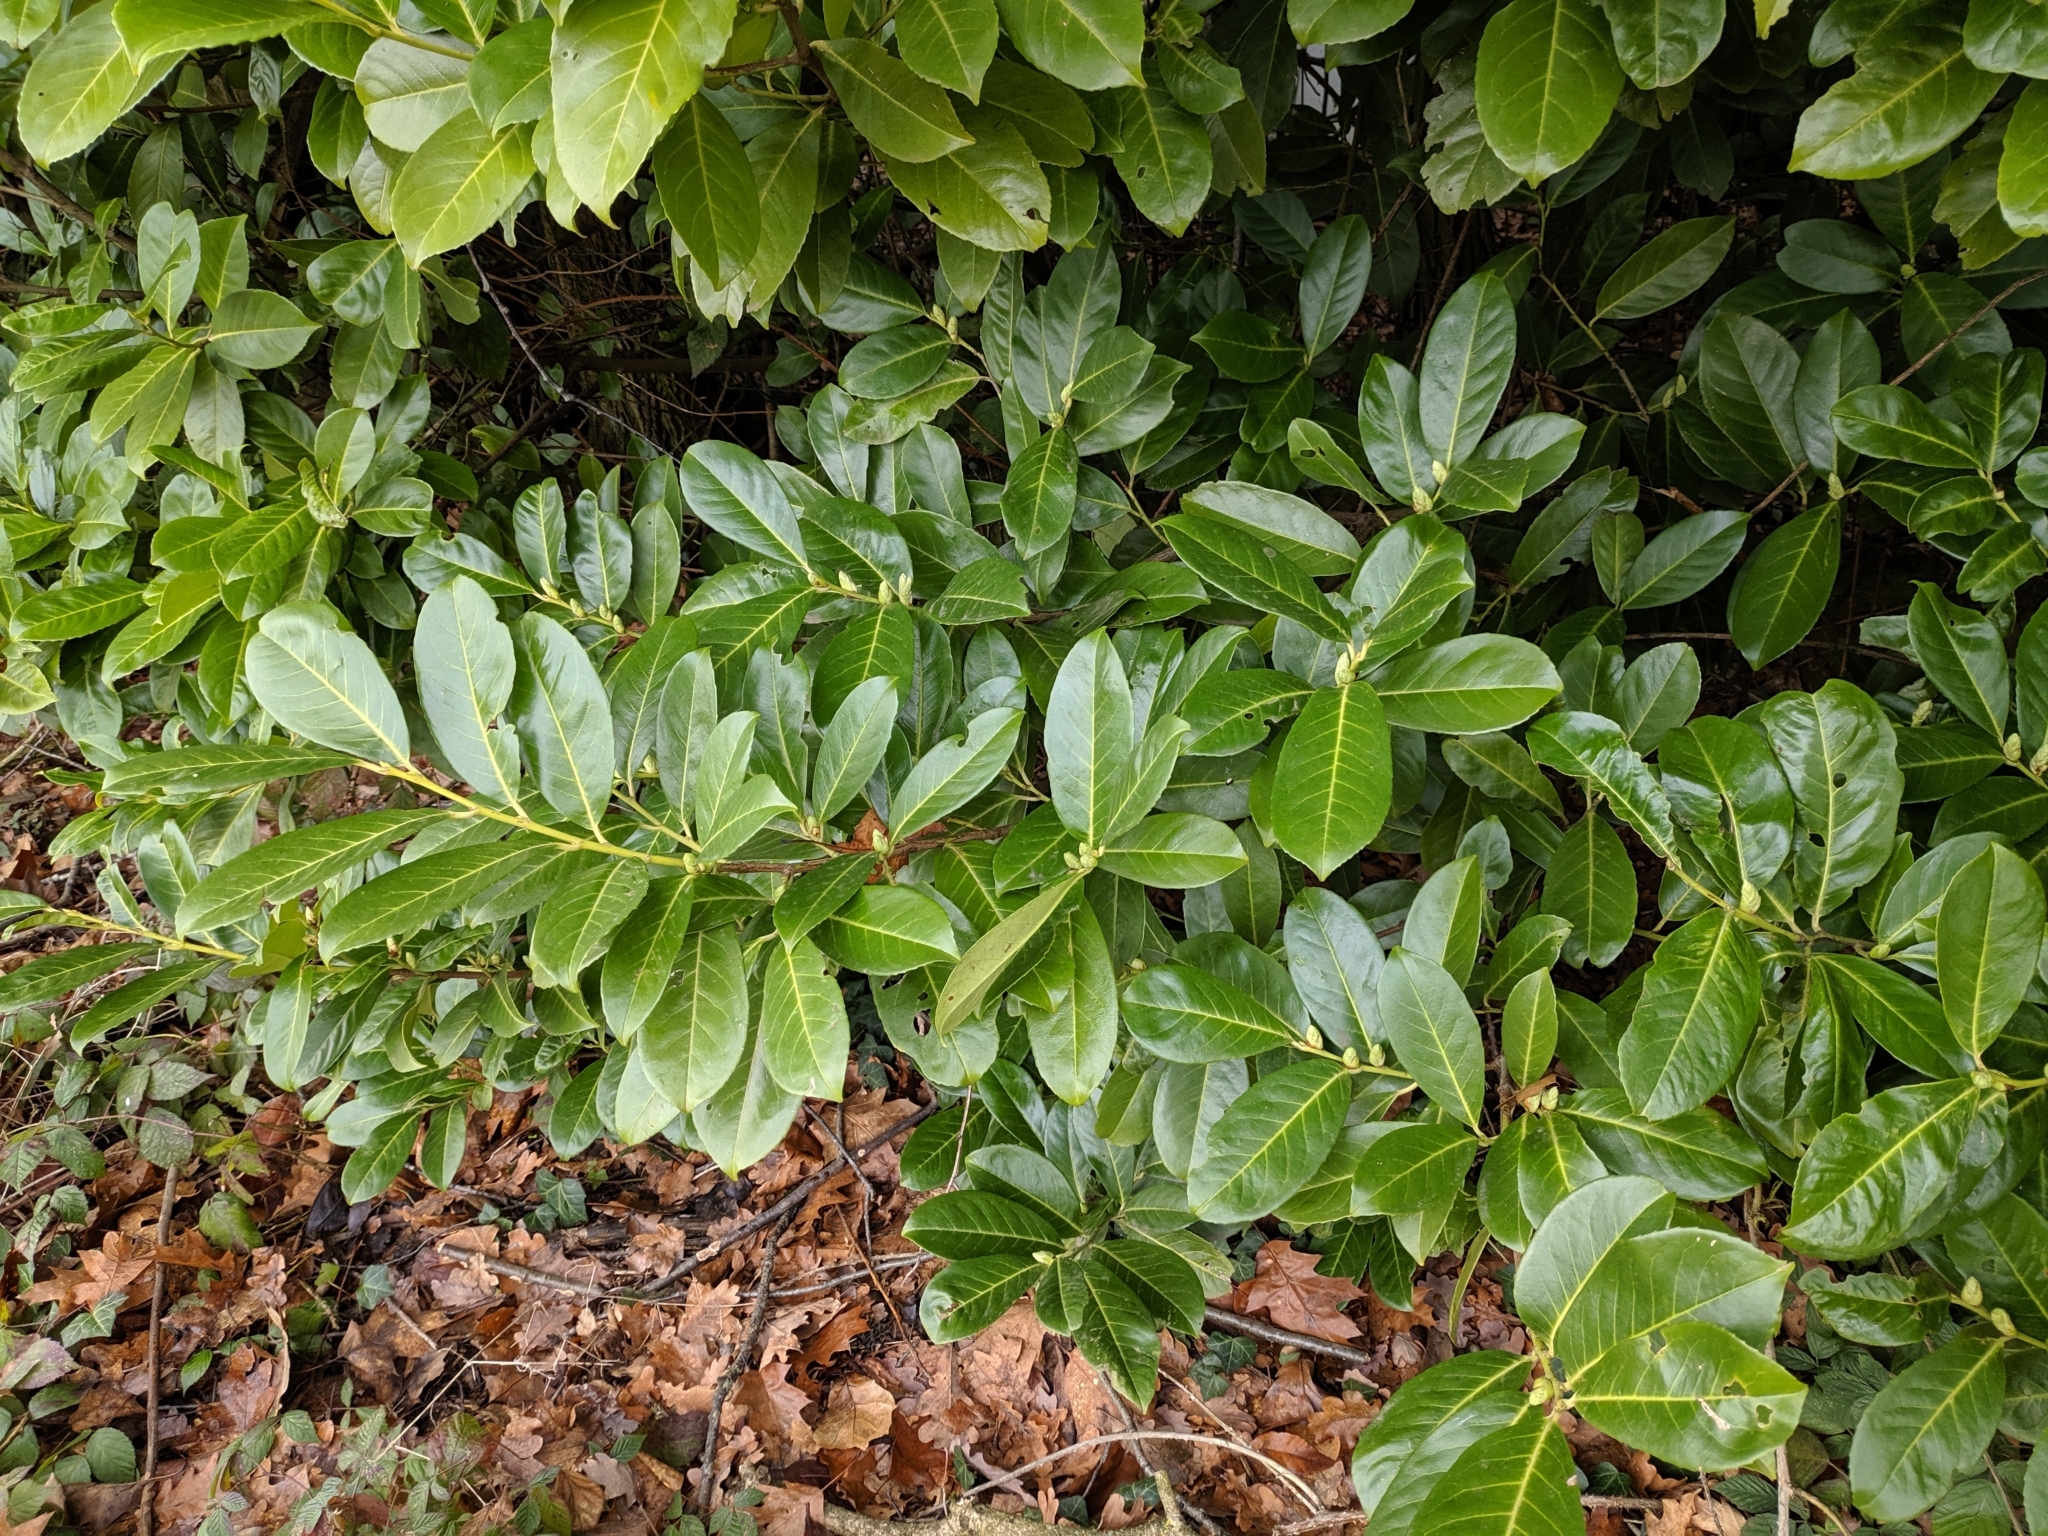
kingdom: Plantae
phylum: Tracheophyta
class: Magnoliopsida
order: Rosales
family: Rosaceae
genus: Prunus
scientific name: Prunus laurocerasus
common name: Cherry laurel
